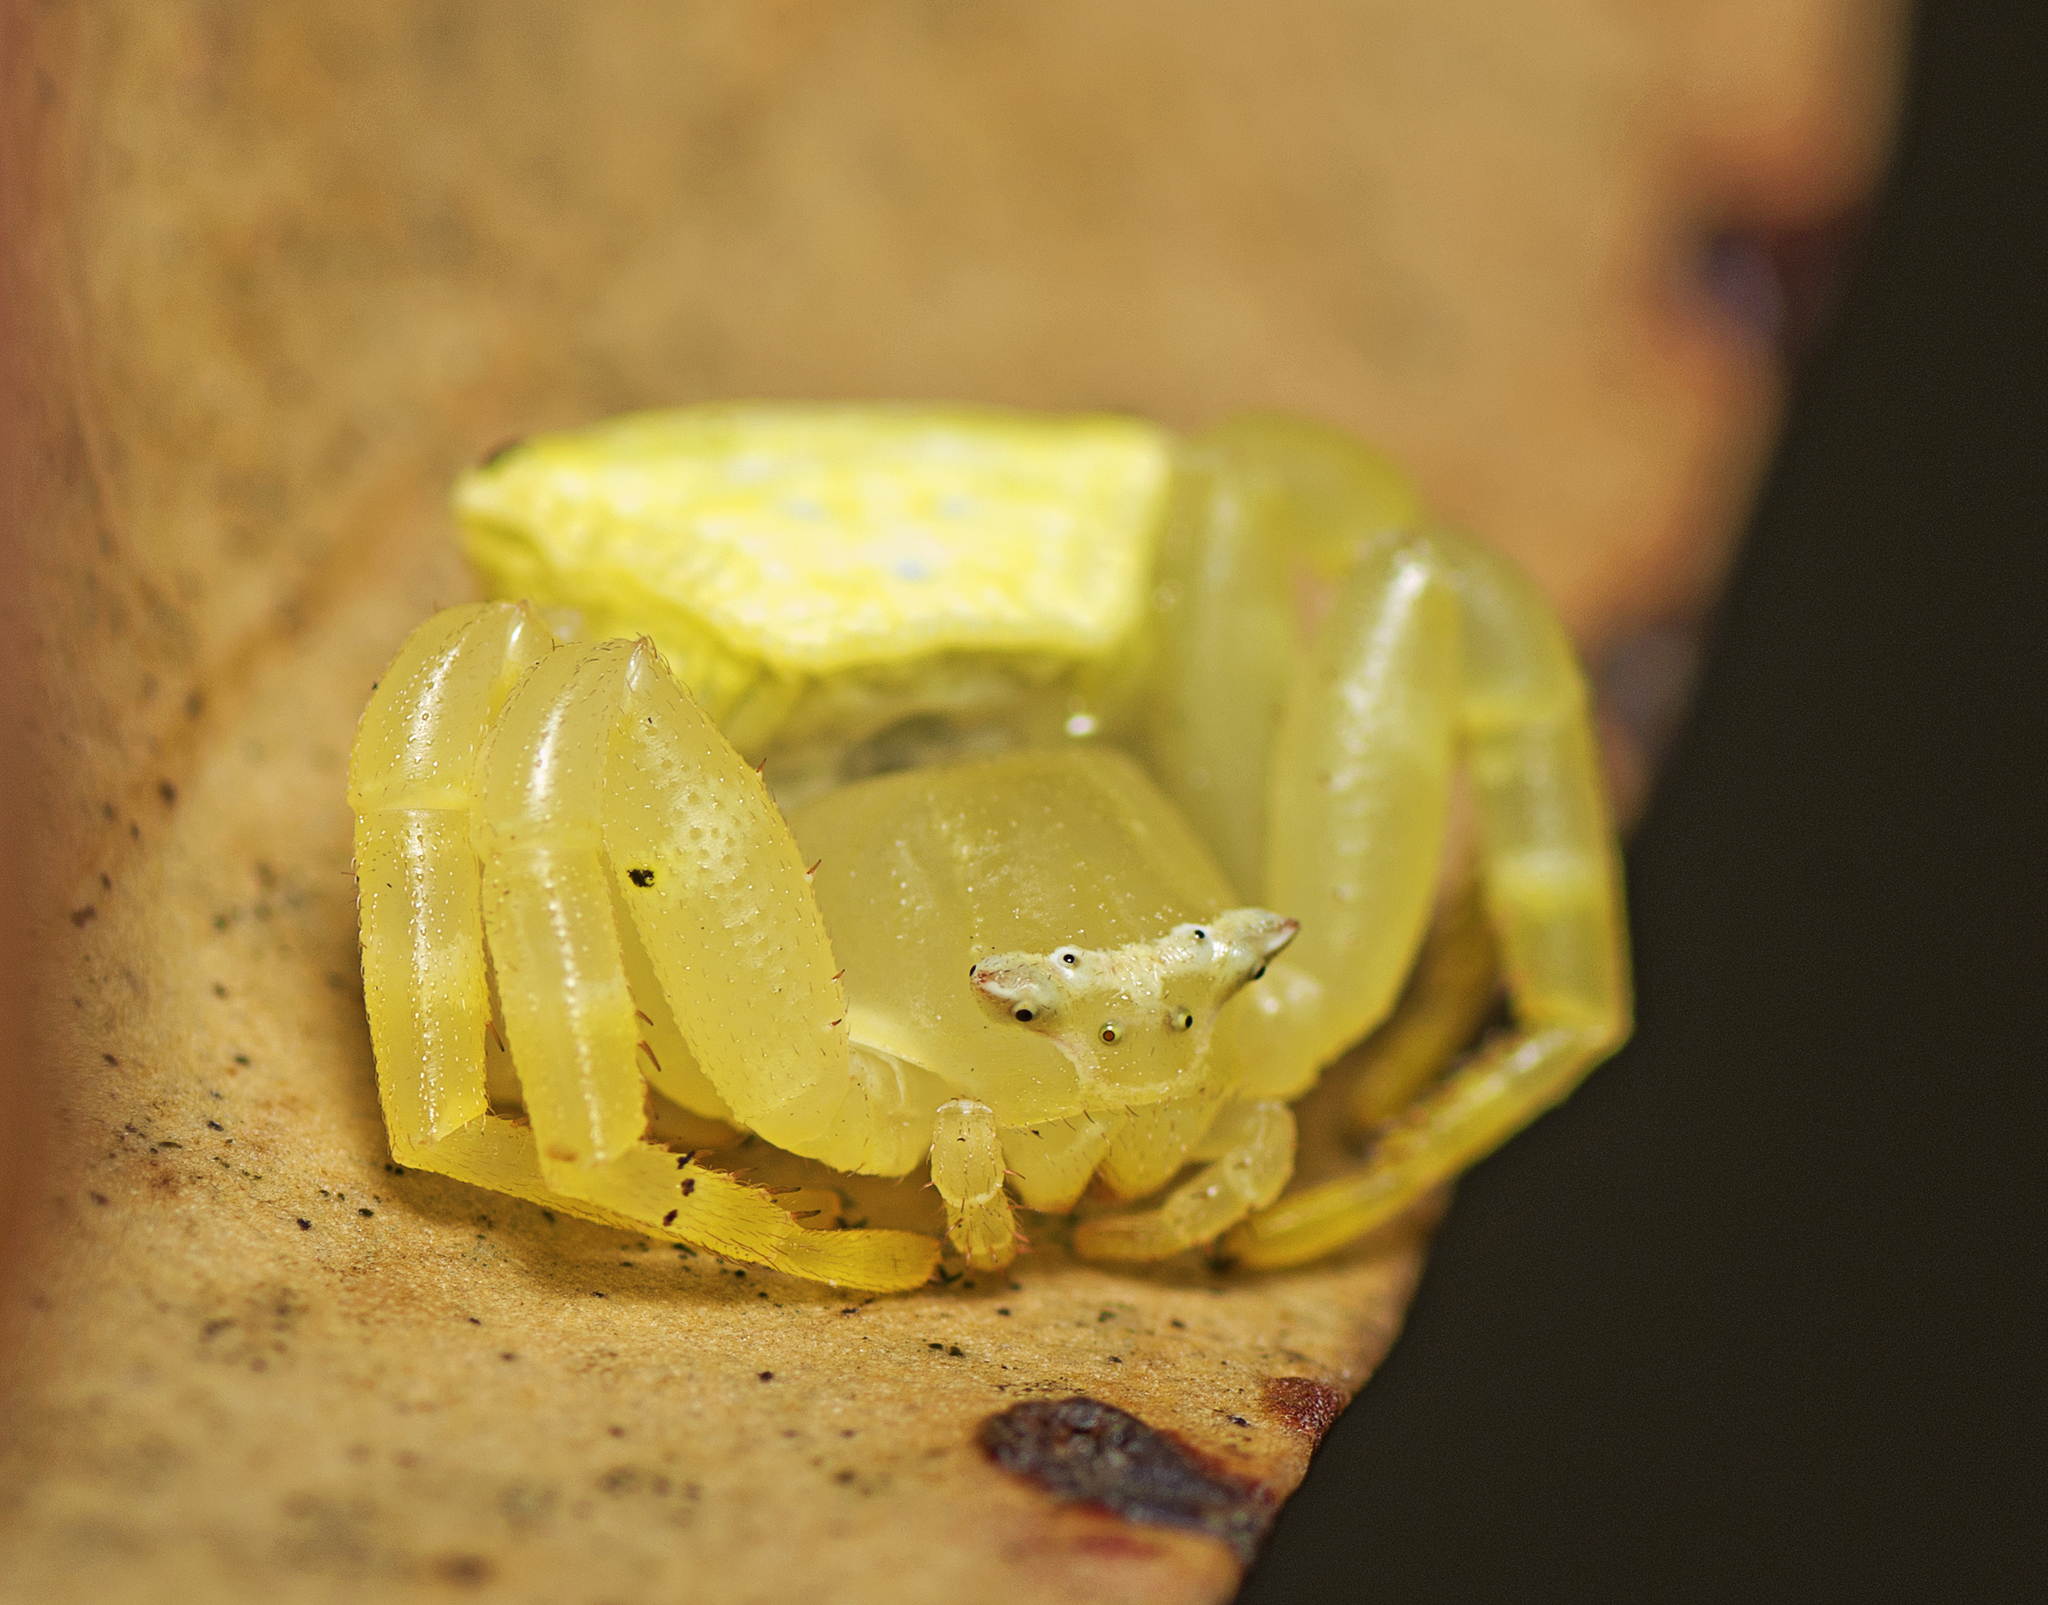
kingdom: Animalia
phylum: Arthropoda
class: Arachnida
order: Araneae
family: Thomisidae
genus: Thomisus
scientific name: Thomisus spectabilis
